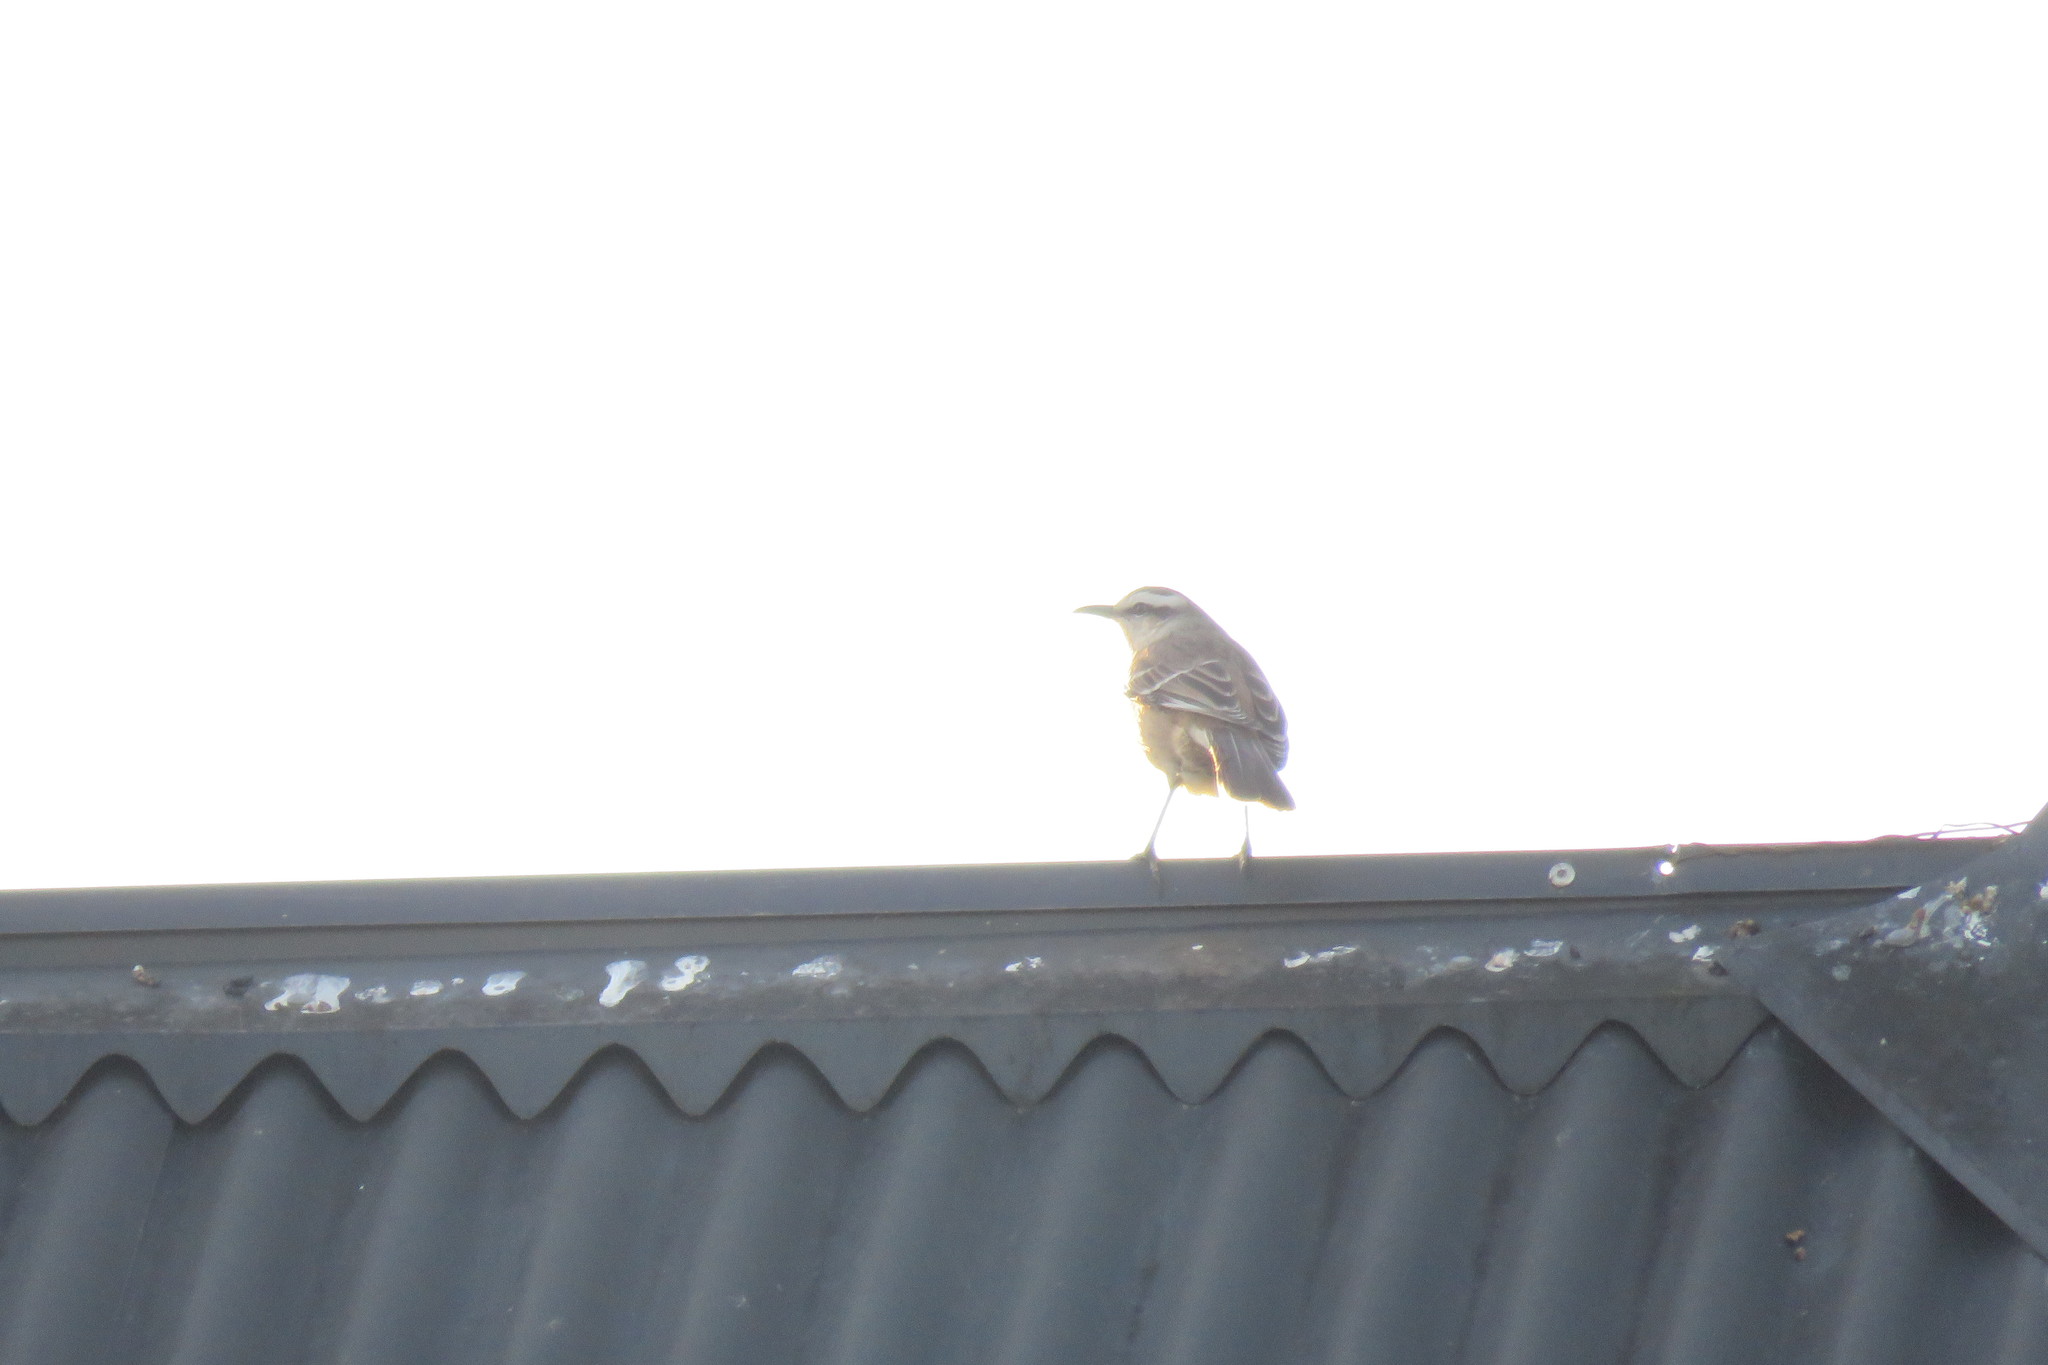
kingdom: Animalia
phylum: Chordata
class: Aves
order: Passeriformes
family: Mimidae
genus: Mimus
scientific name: Mimus saturninus
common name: Chalk-browed mockingbird
